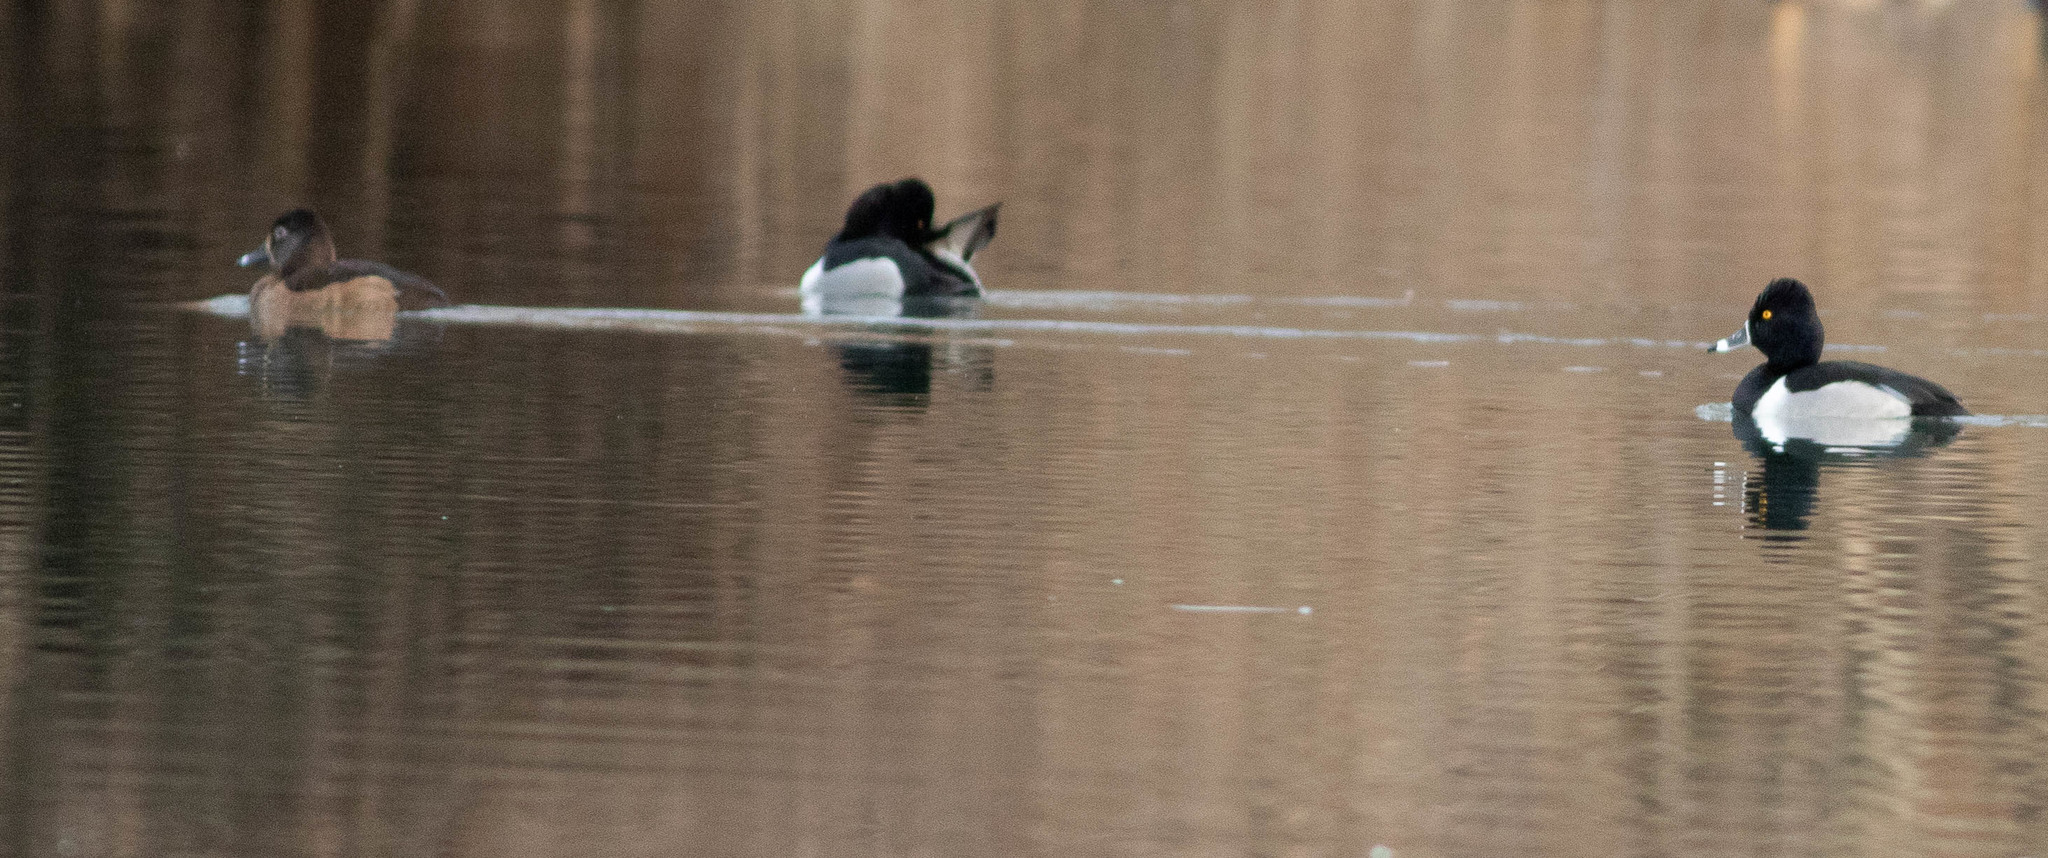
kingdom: Animalia
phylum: Chordata
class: Aves
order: Anseriformes
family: Anatidae
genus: Aythya
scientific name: Aythya collaris
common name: Ring-necked duck
